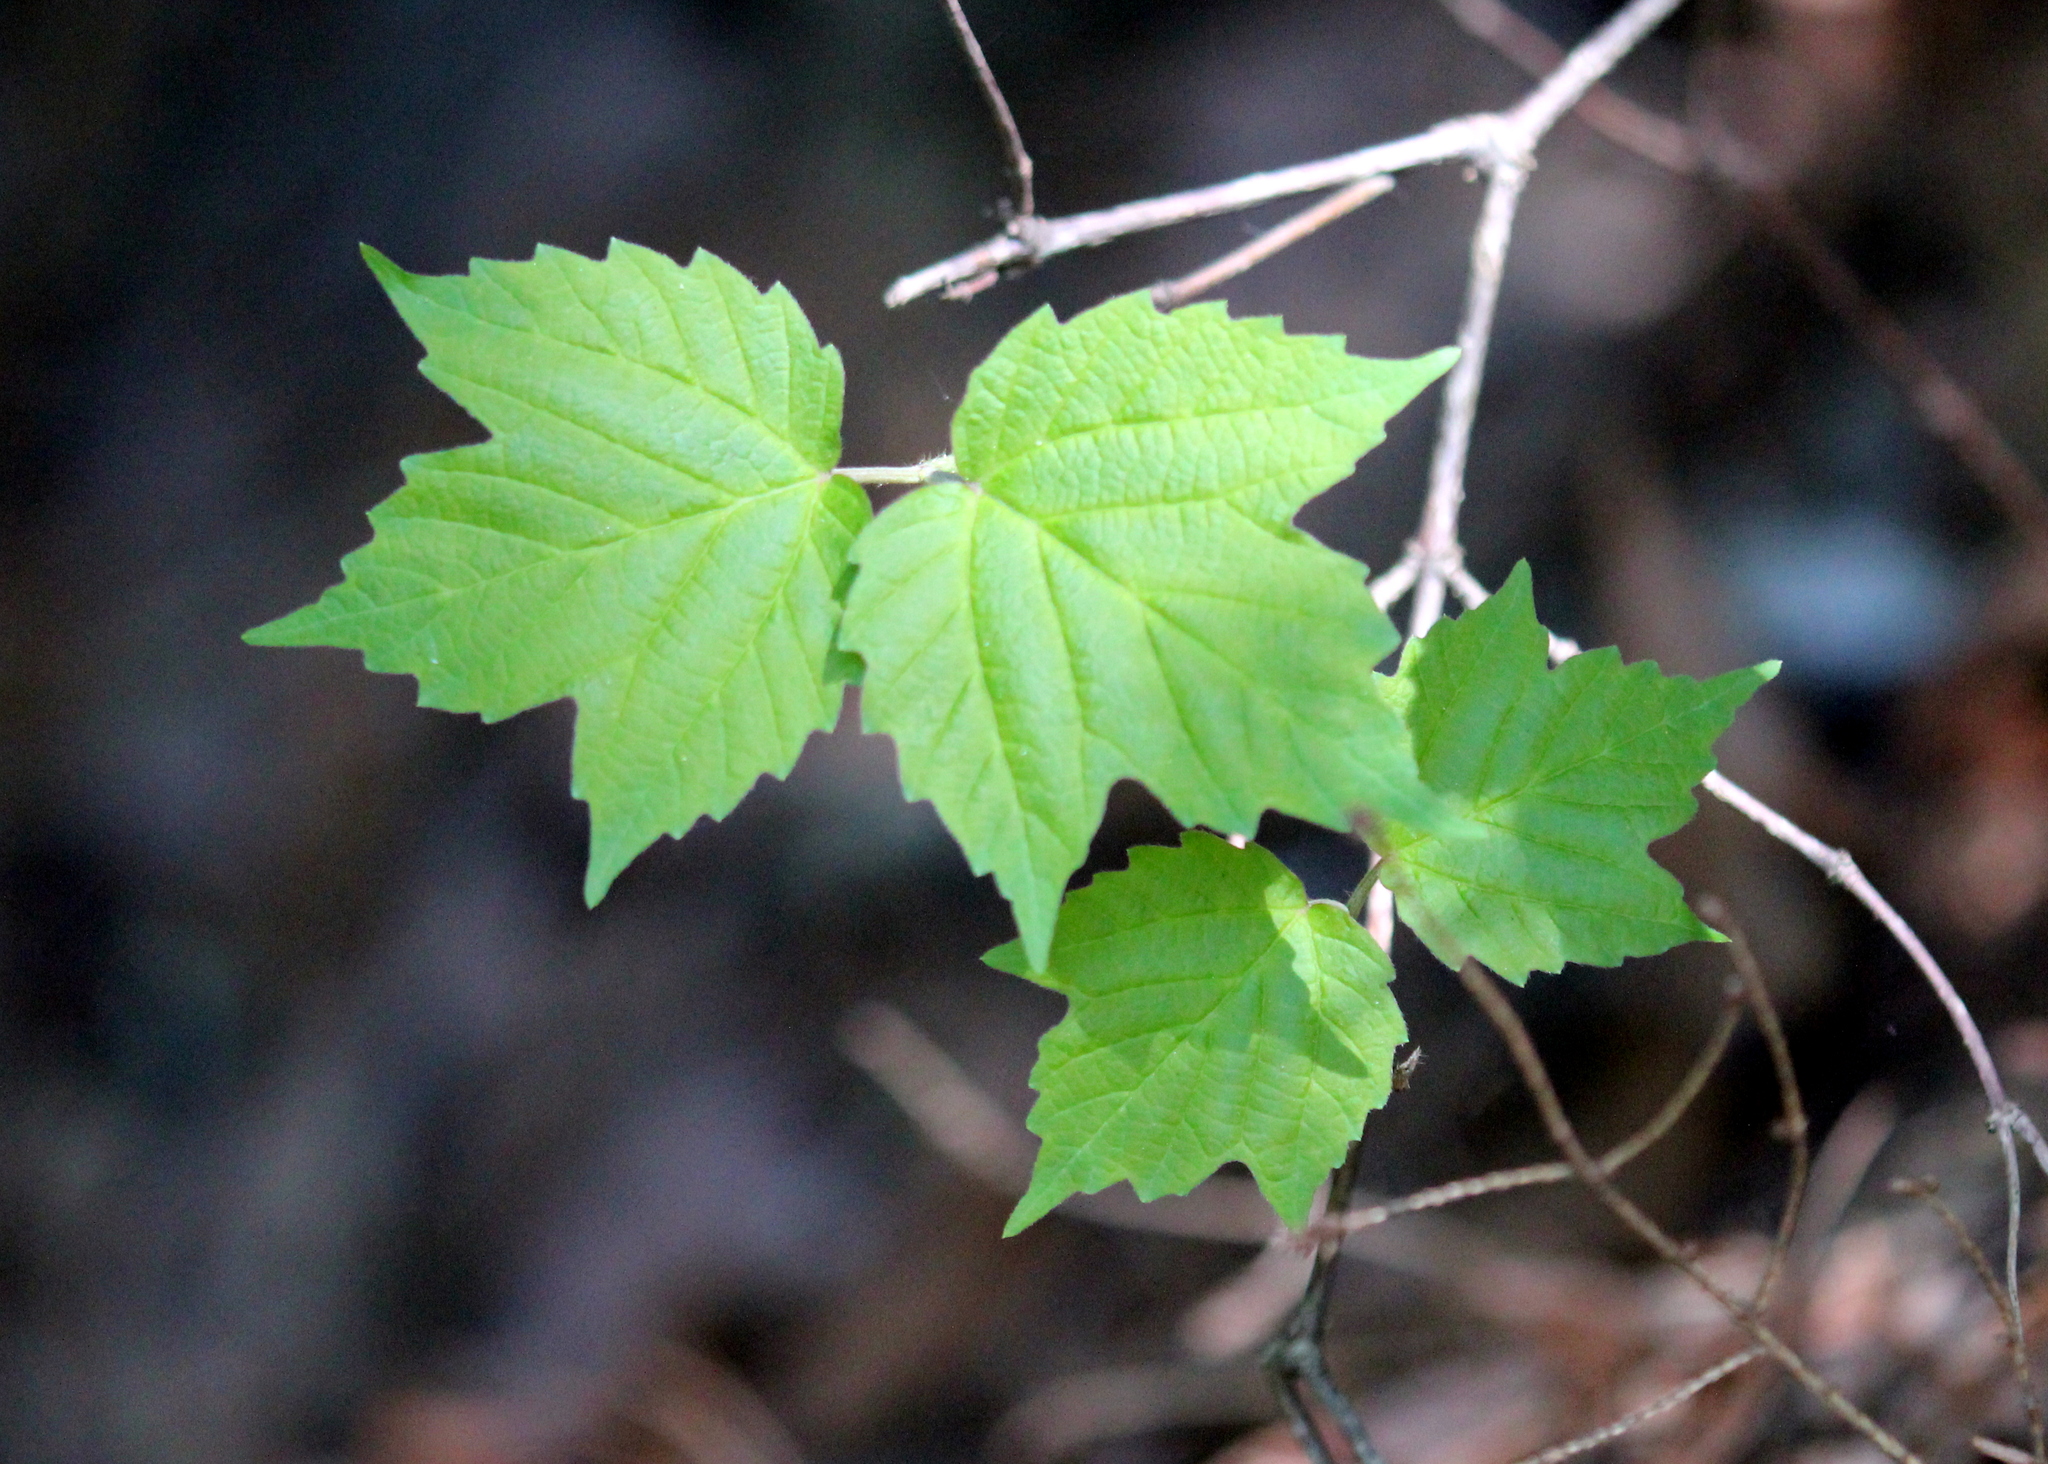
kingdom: Plantae
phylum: Tracheophyta
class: Magnoliopsida
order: Dipsacales
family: Viburnaceae
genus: Viburnum
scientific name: Viburnum acerifolium
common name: Dockmackie
